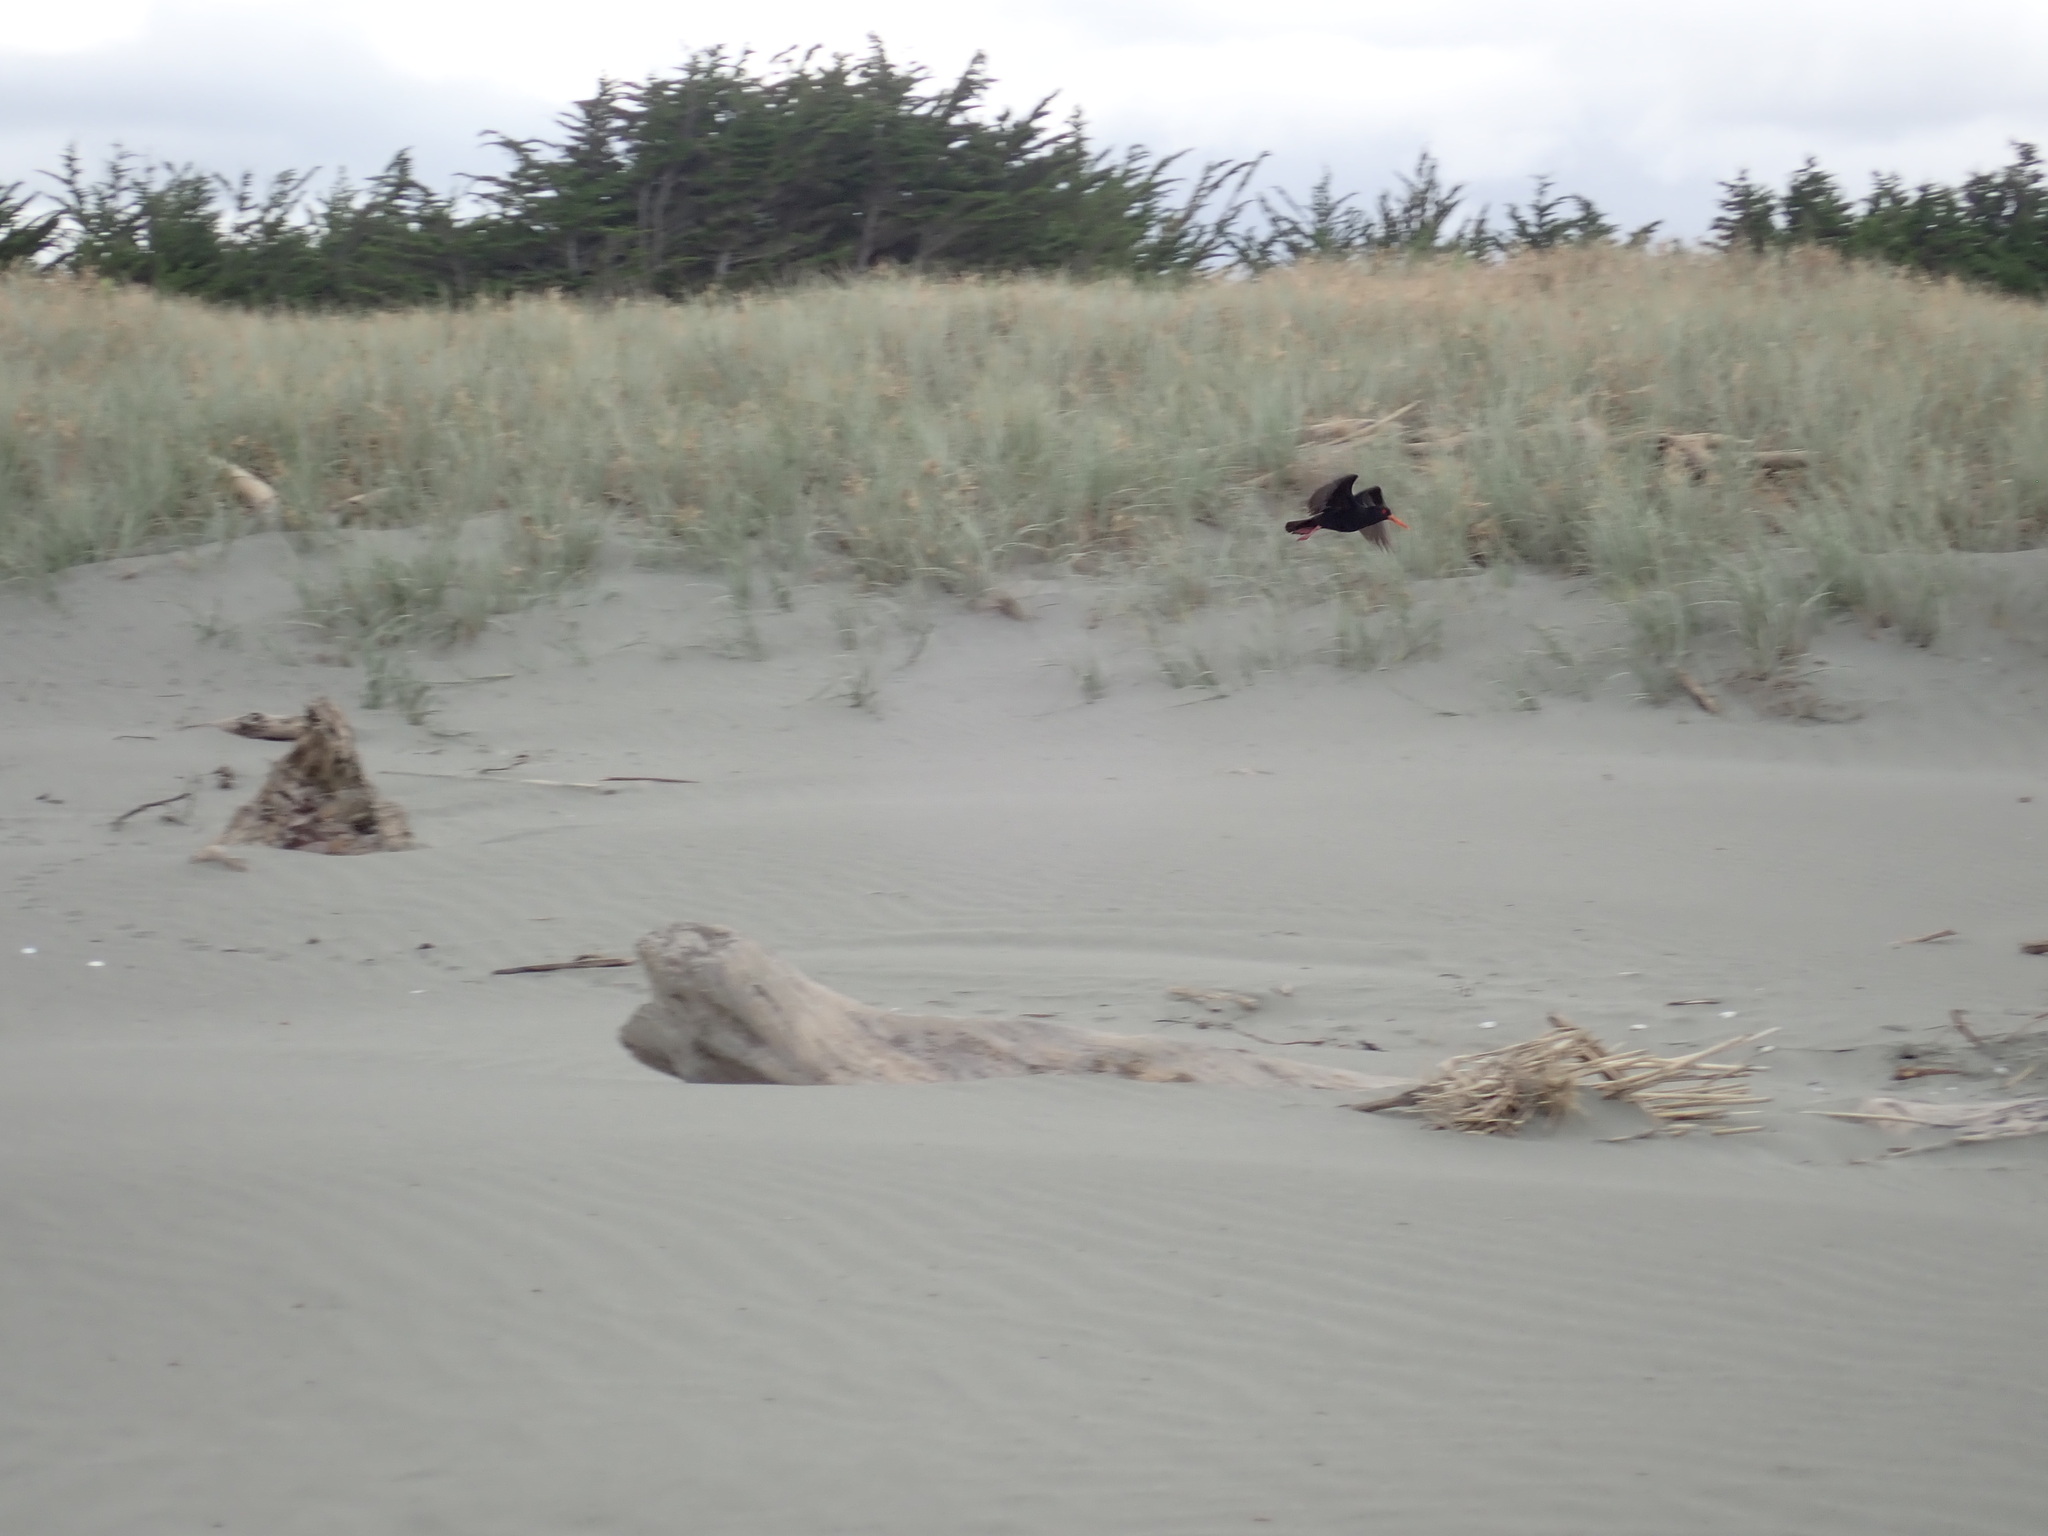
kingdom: Animalia
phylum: Chordata
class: Aves
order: Charadriiformes
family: Haematopodidae
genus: Haematopus
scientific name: Haematopus unicolor
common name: Variable oystercatcher
